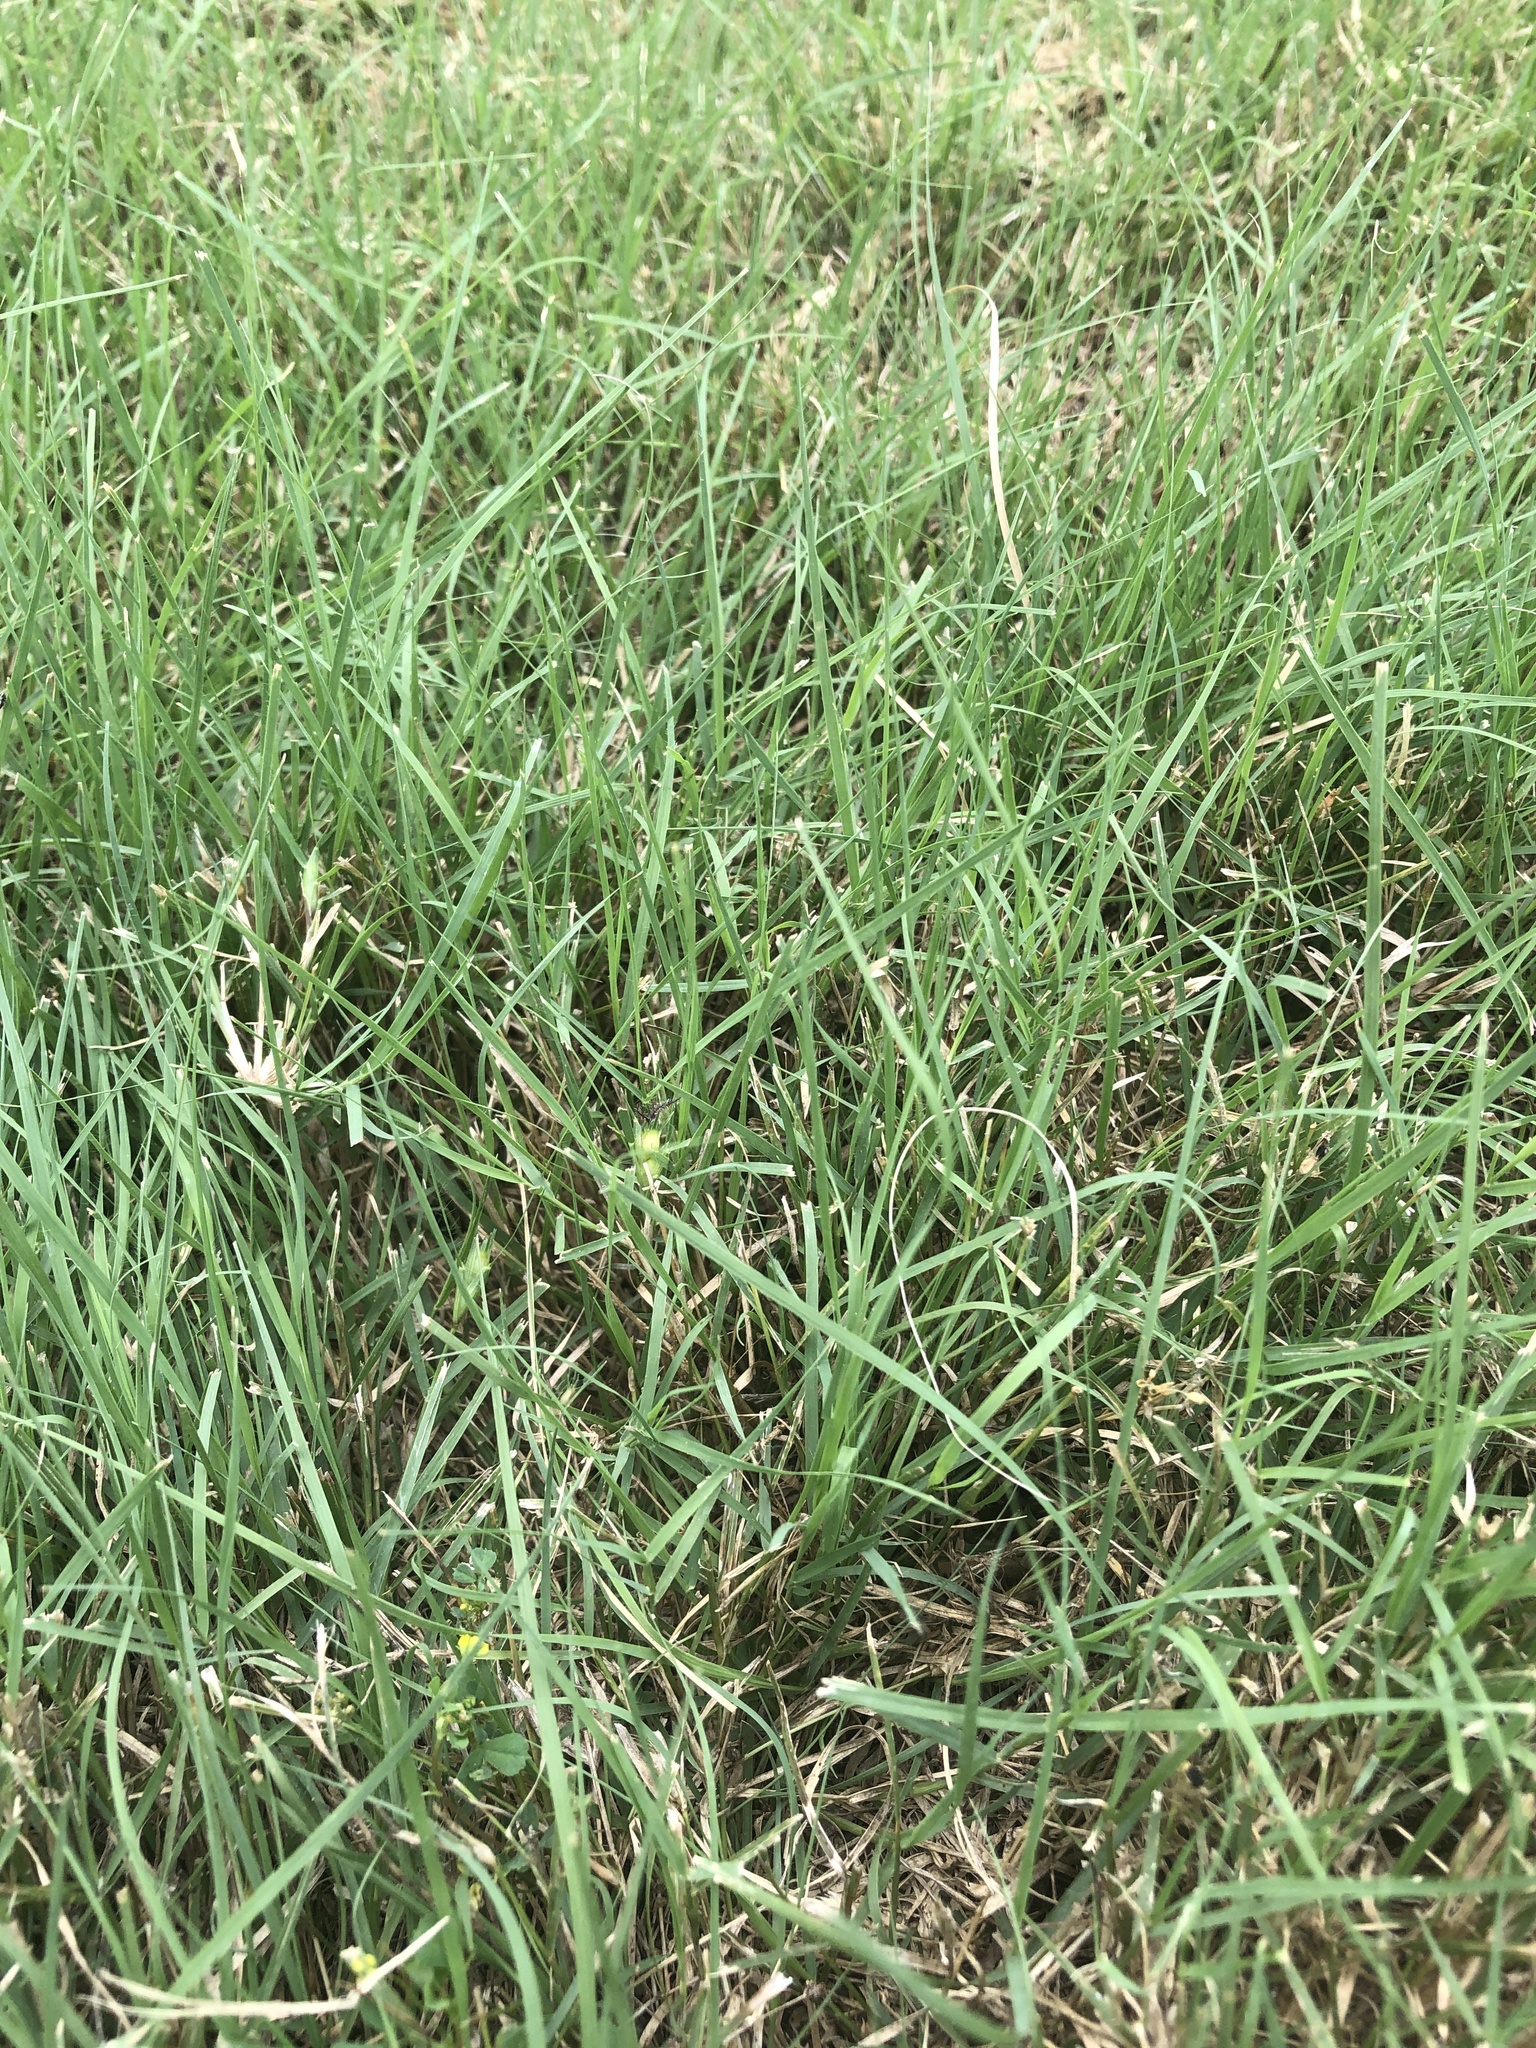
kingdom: Plantae
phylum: Tracheophyta
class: Liliopsida
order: Poales
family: Poaceae
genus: Bouteloua
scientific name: Bouteloua dactyloides
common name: Buffalo grass
